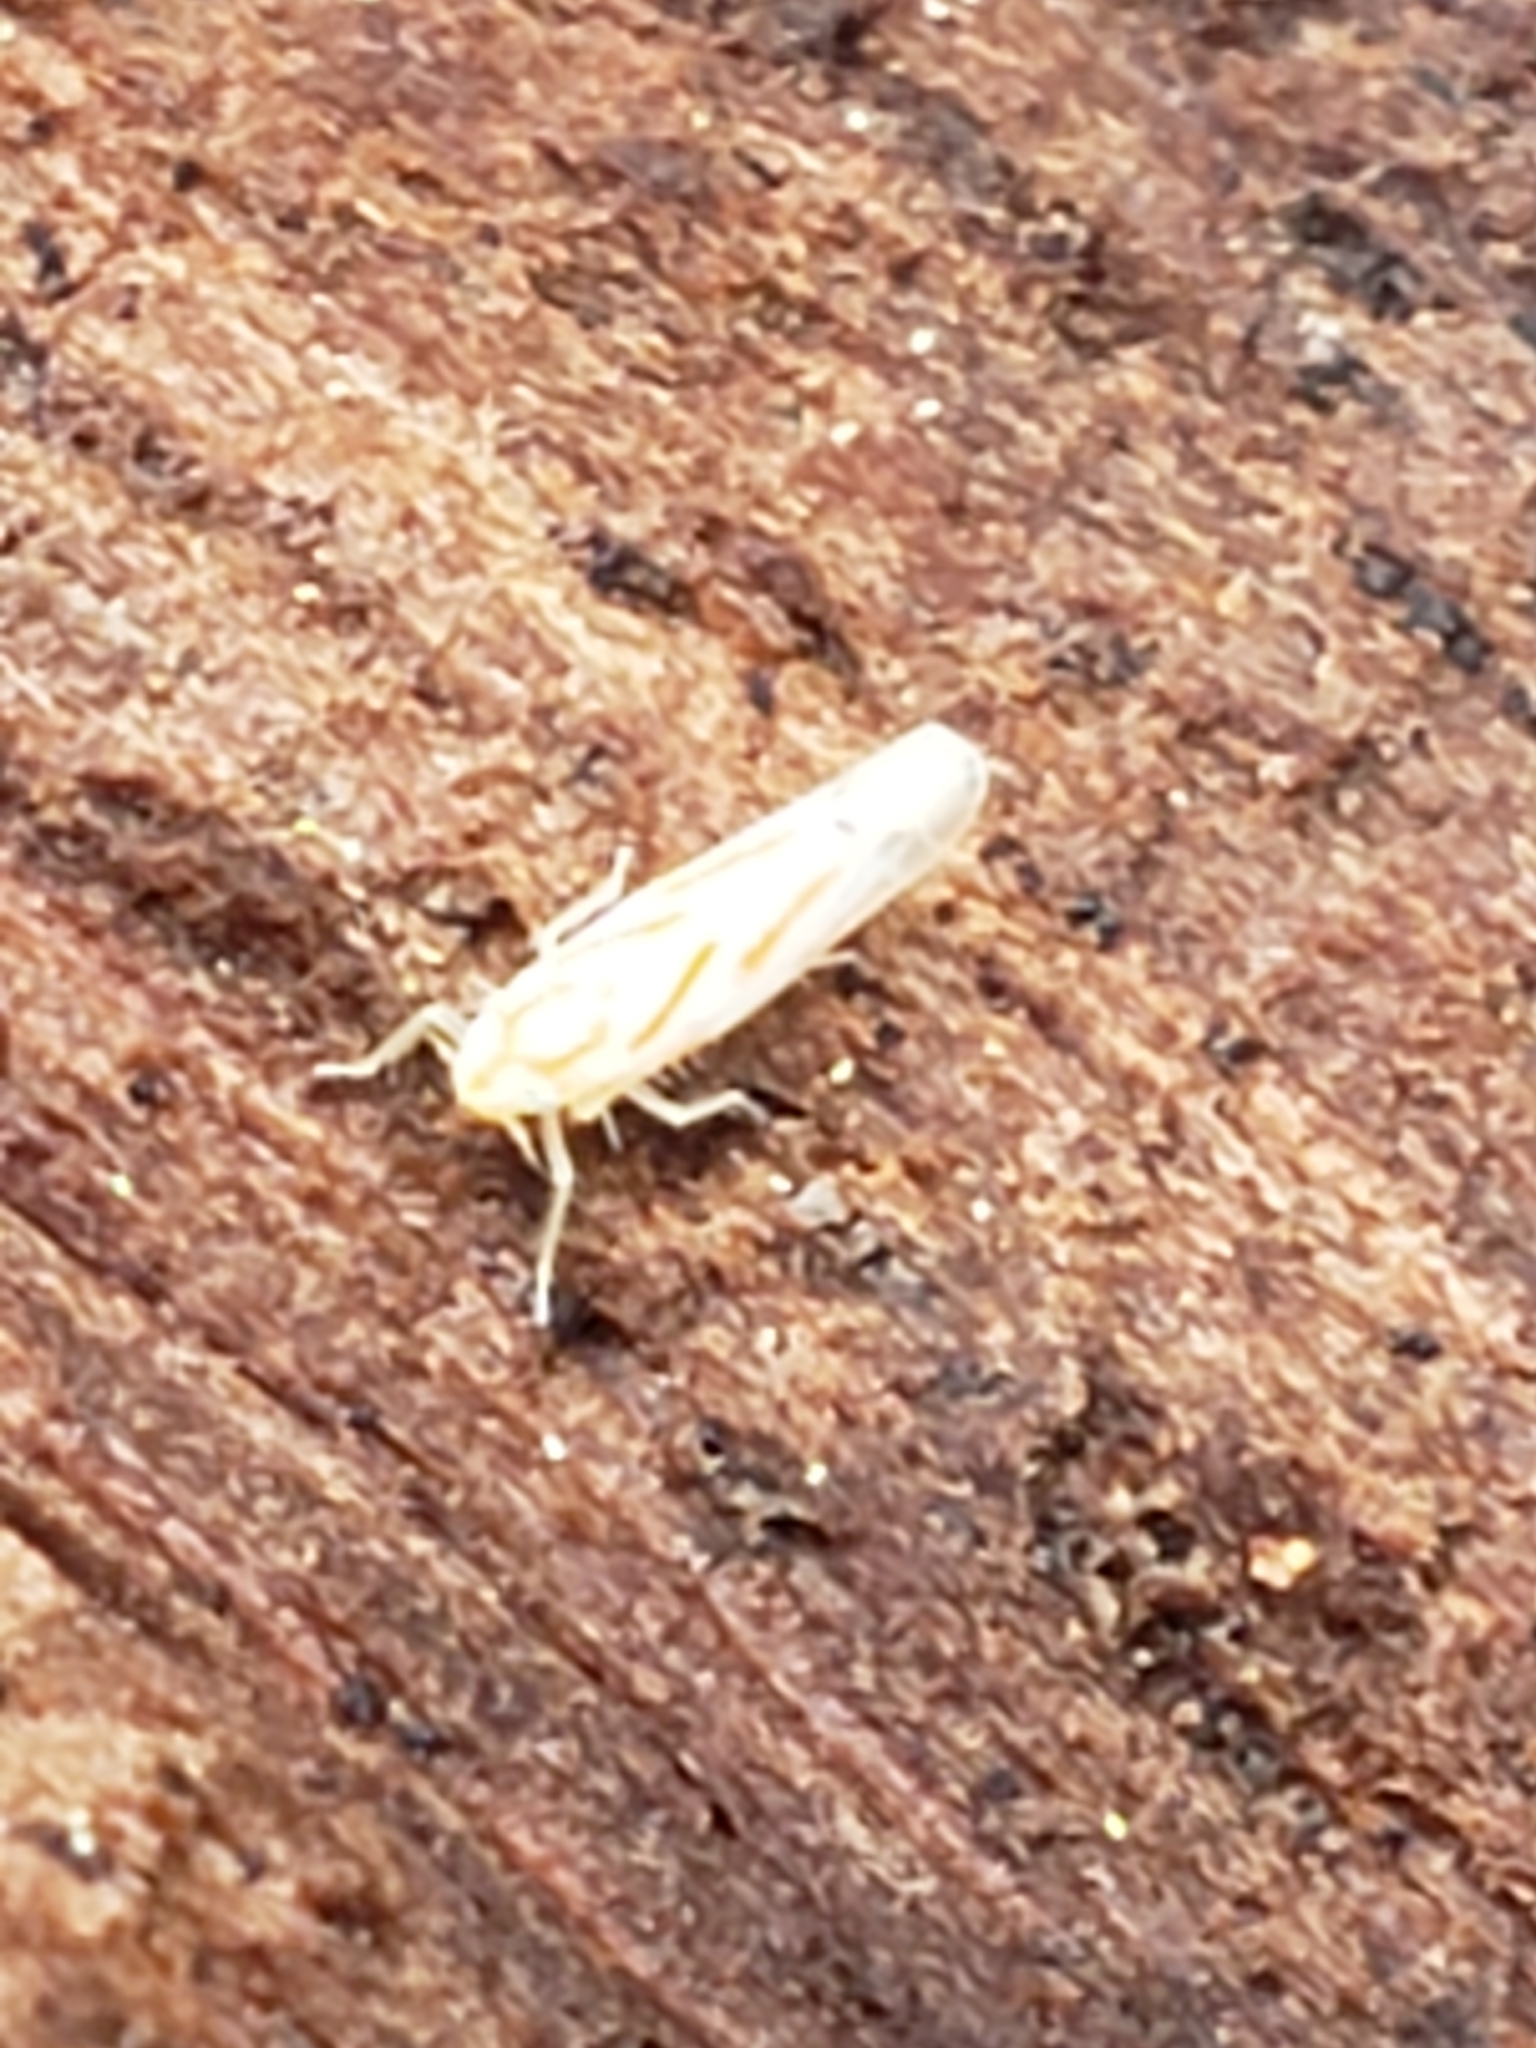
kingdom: Animalia
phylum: Arthropoda
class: Insecta
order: Hemiptera
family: Cicadellidae
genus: Dikrella
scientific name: Dikrella cruentata
